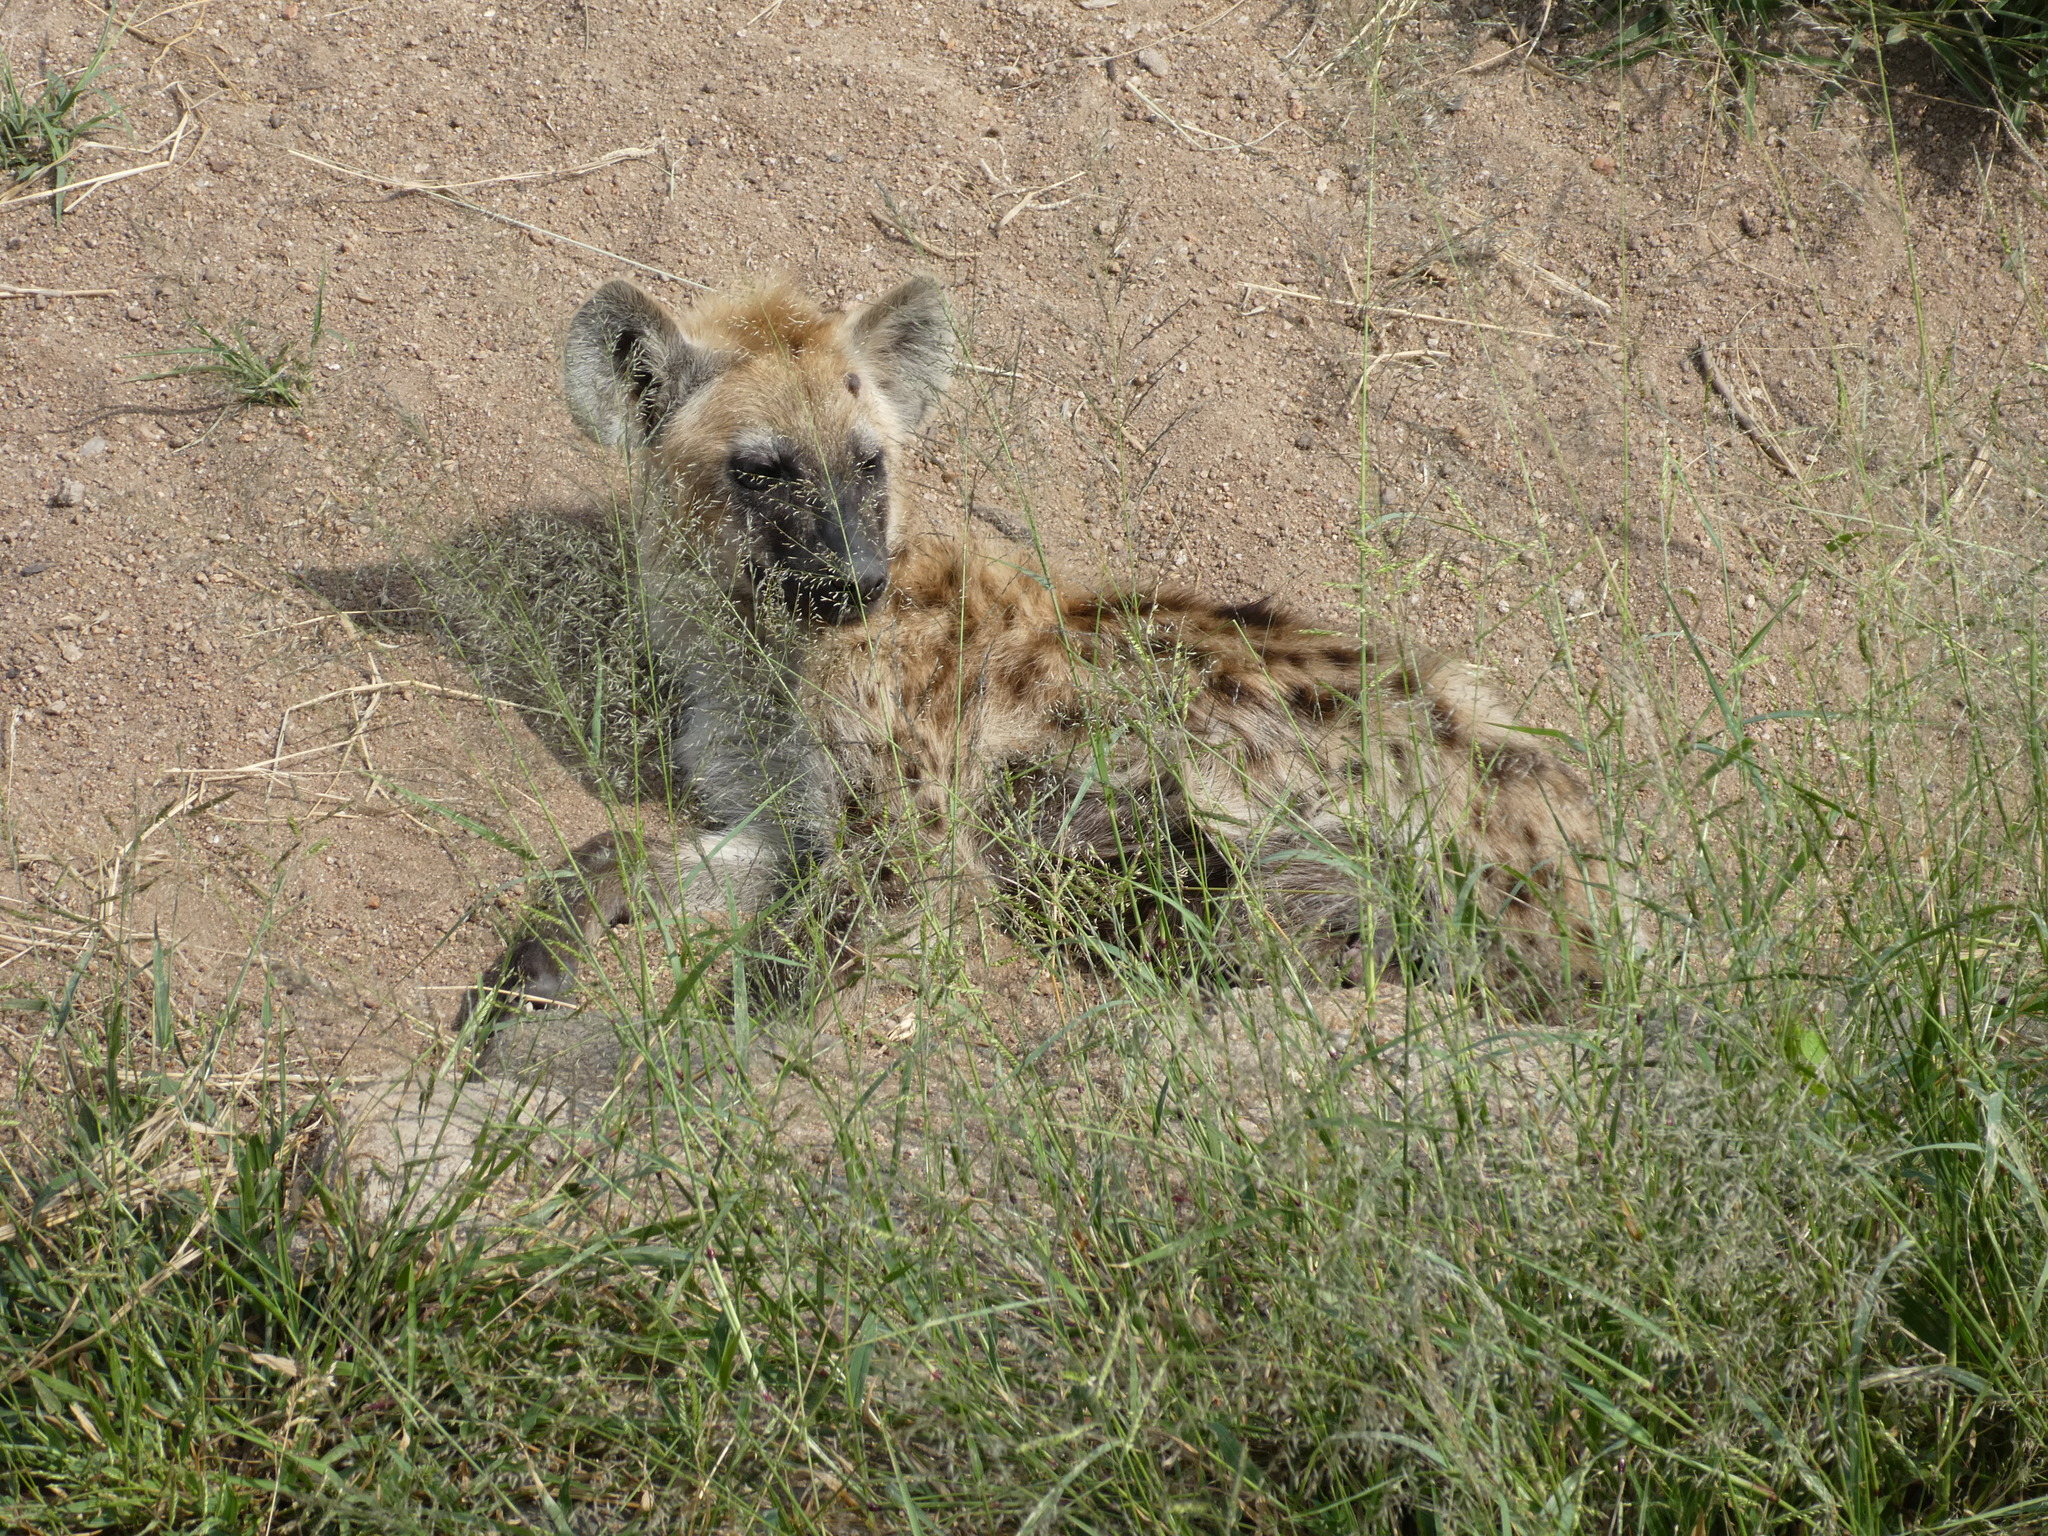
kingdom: Animalia
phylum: Chordata
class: Mammalia
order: Carnivora
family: Hyaenidae
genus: Crocuta
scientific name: Crocuta crocuta
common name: Spotted hyaena
